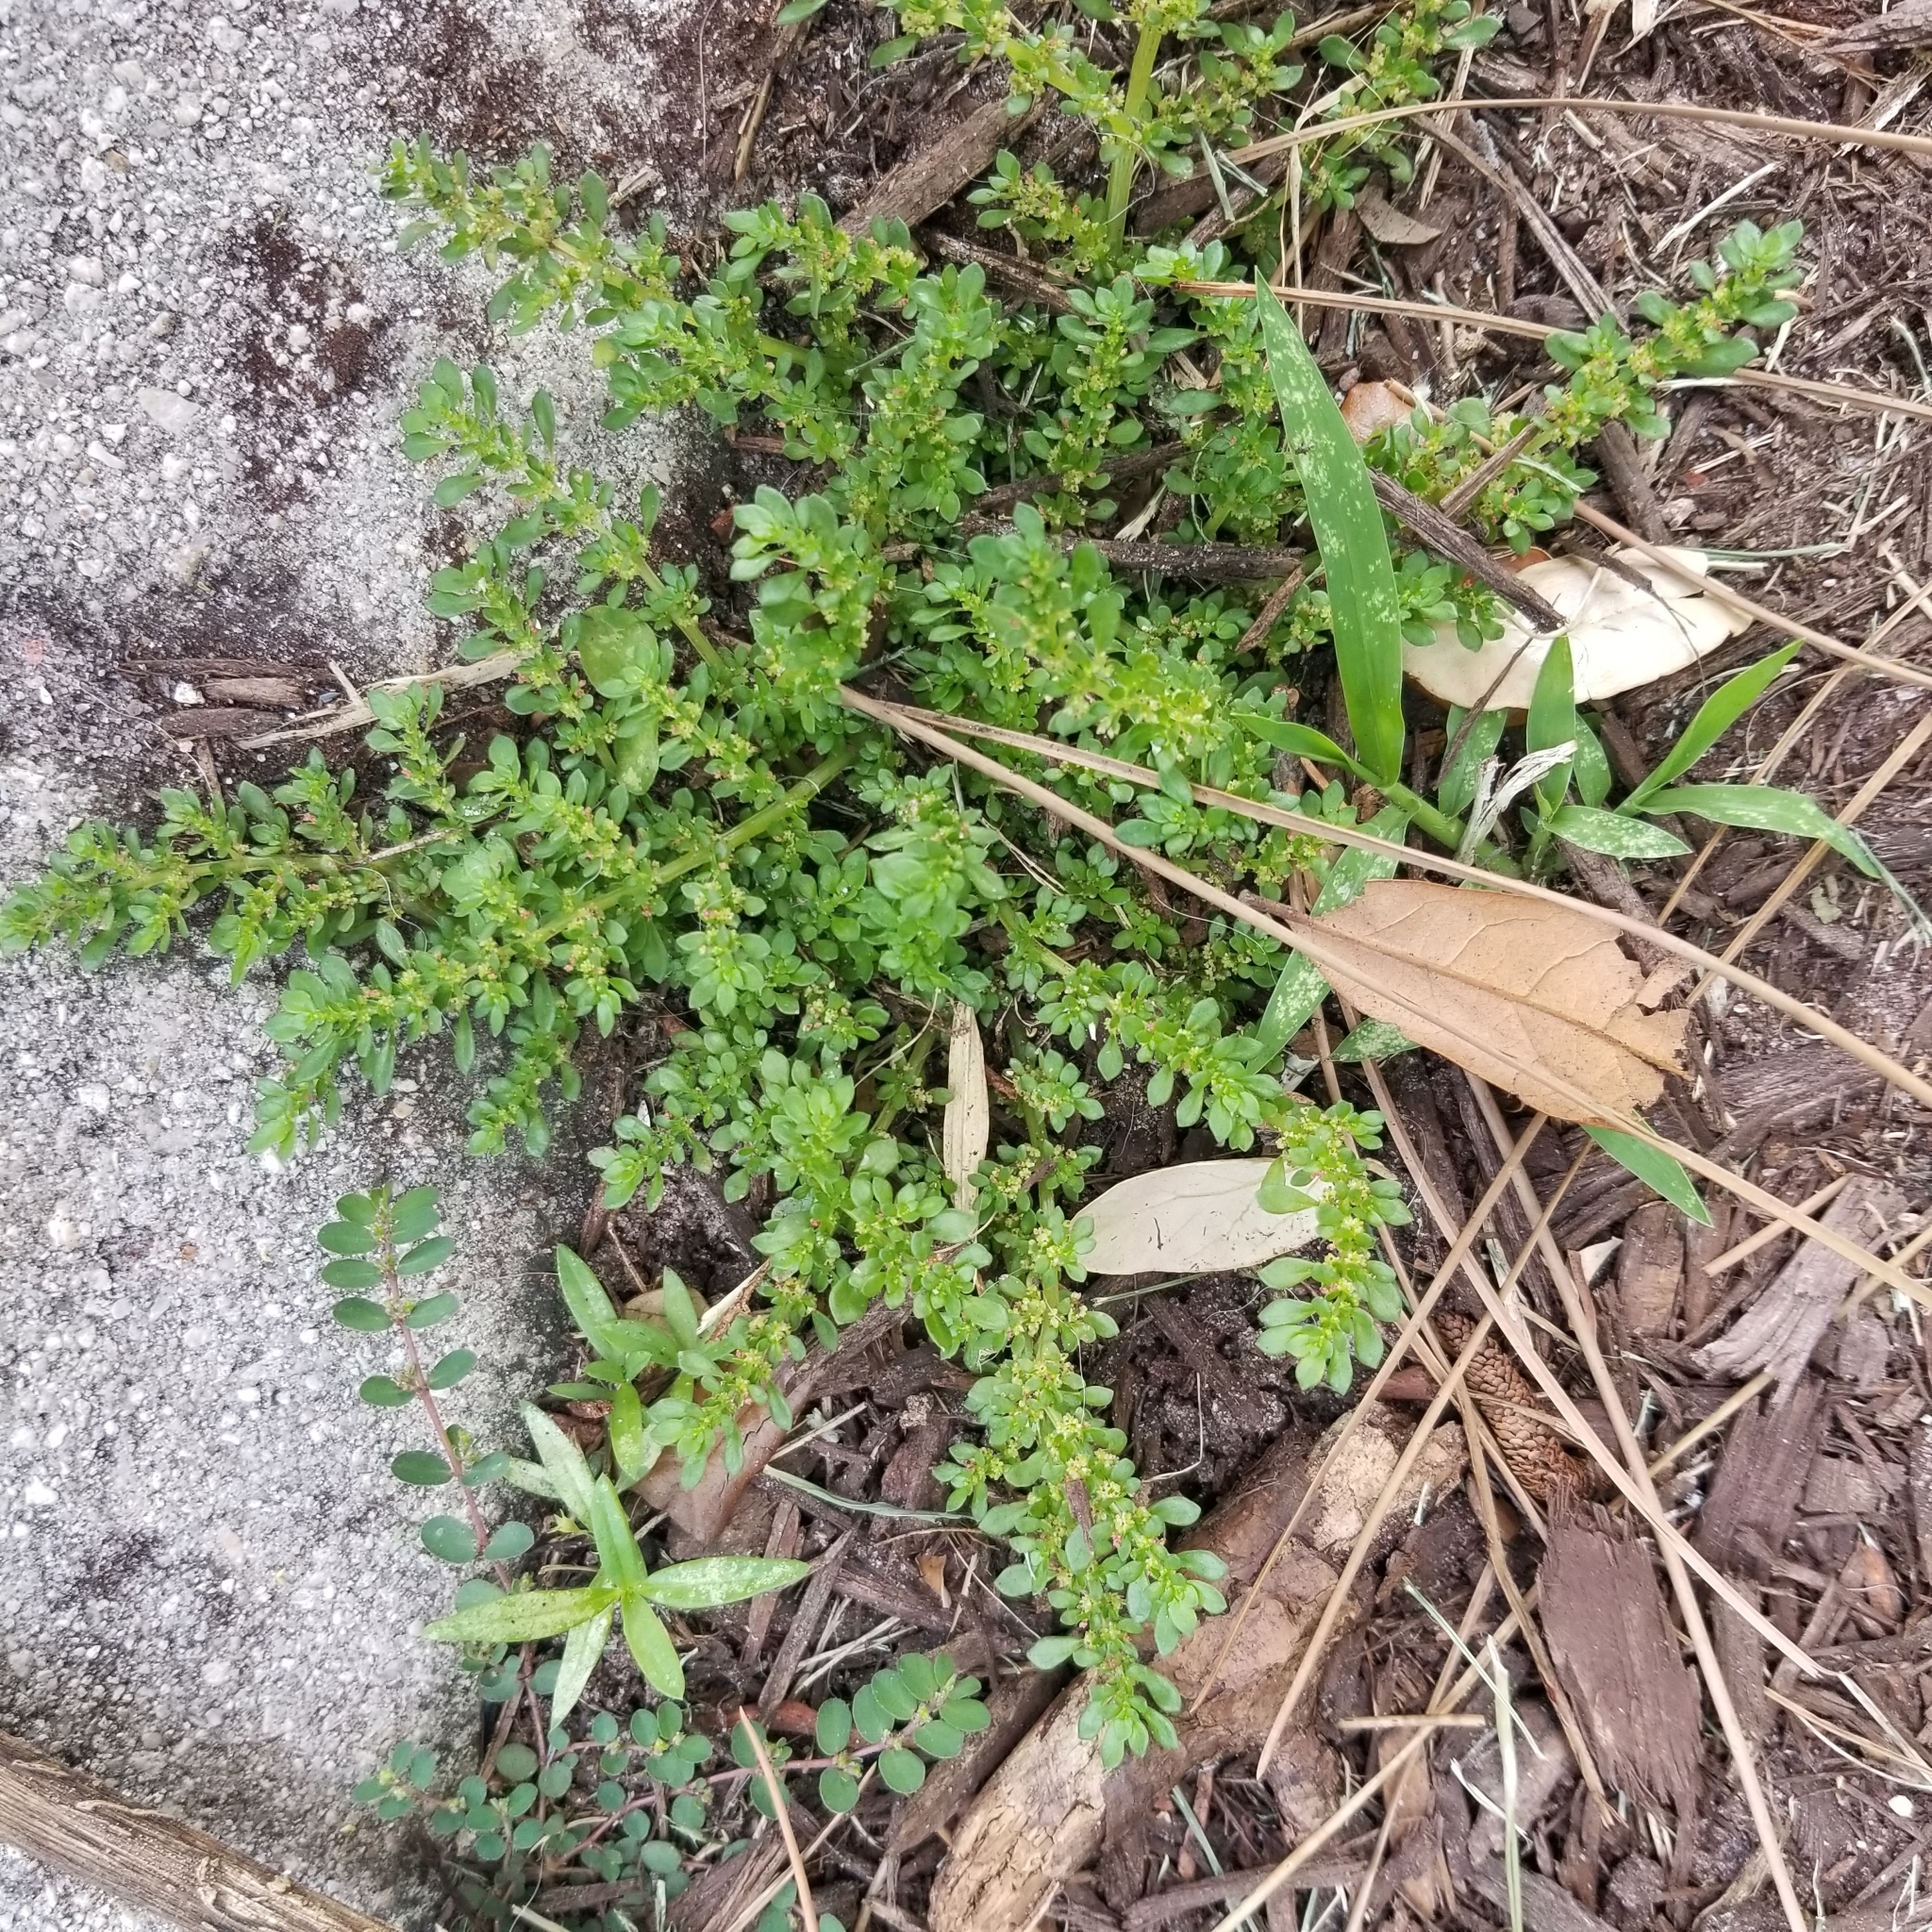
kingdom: Plantae
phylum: Tracheophyta
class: Magnoliopsida
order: Rosales
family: Urticaceae
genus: Pilea
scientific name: Pilea microphylla
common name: Artillery-plant
